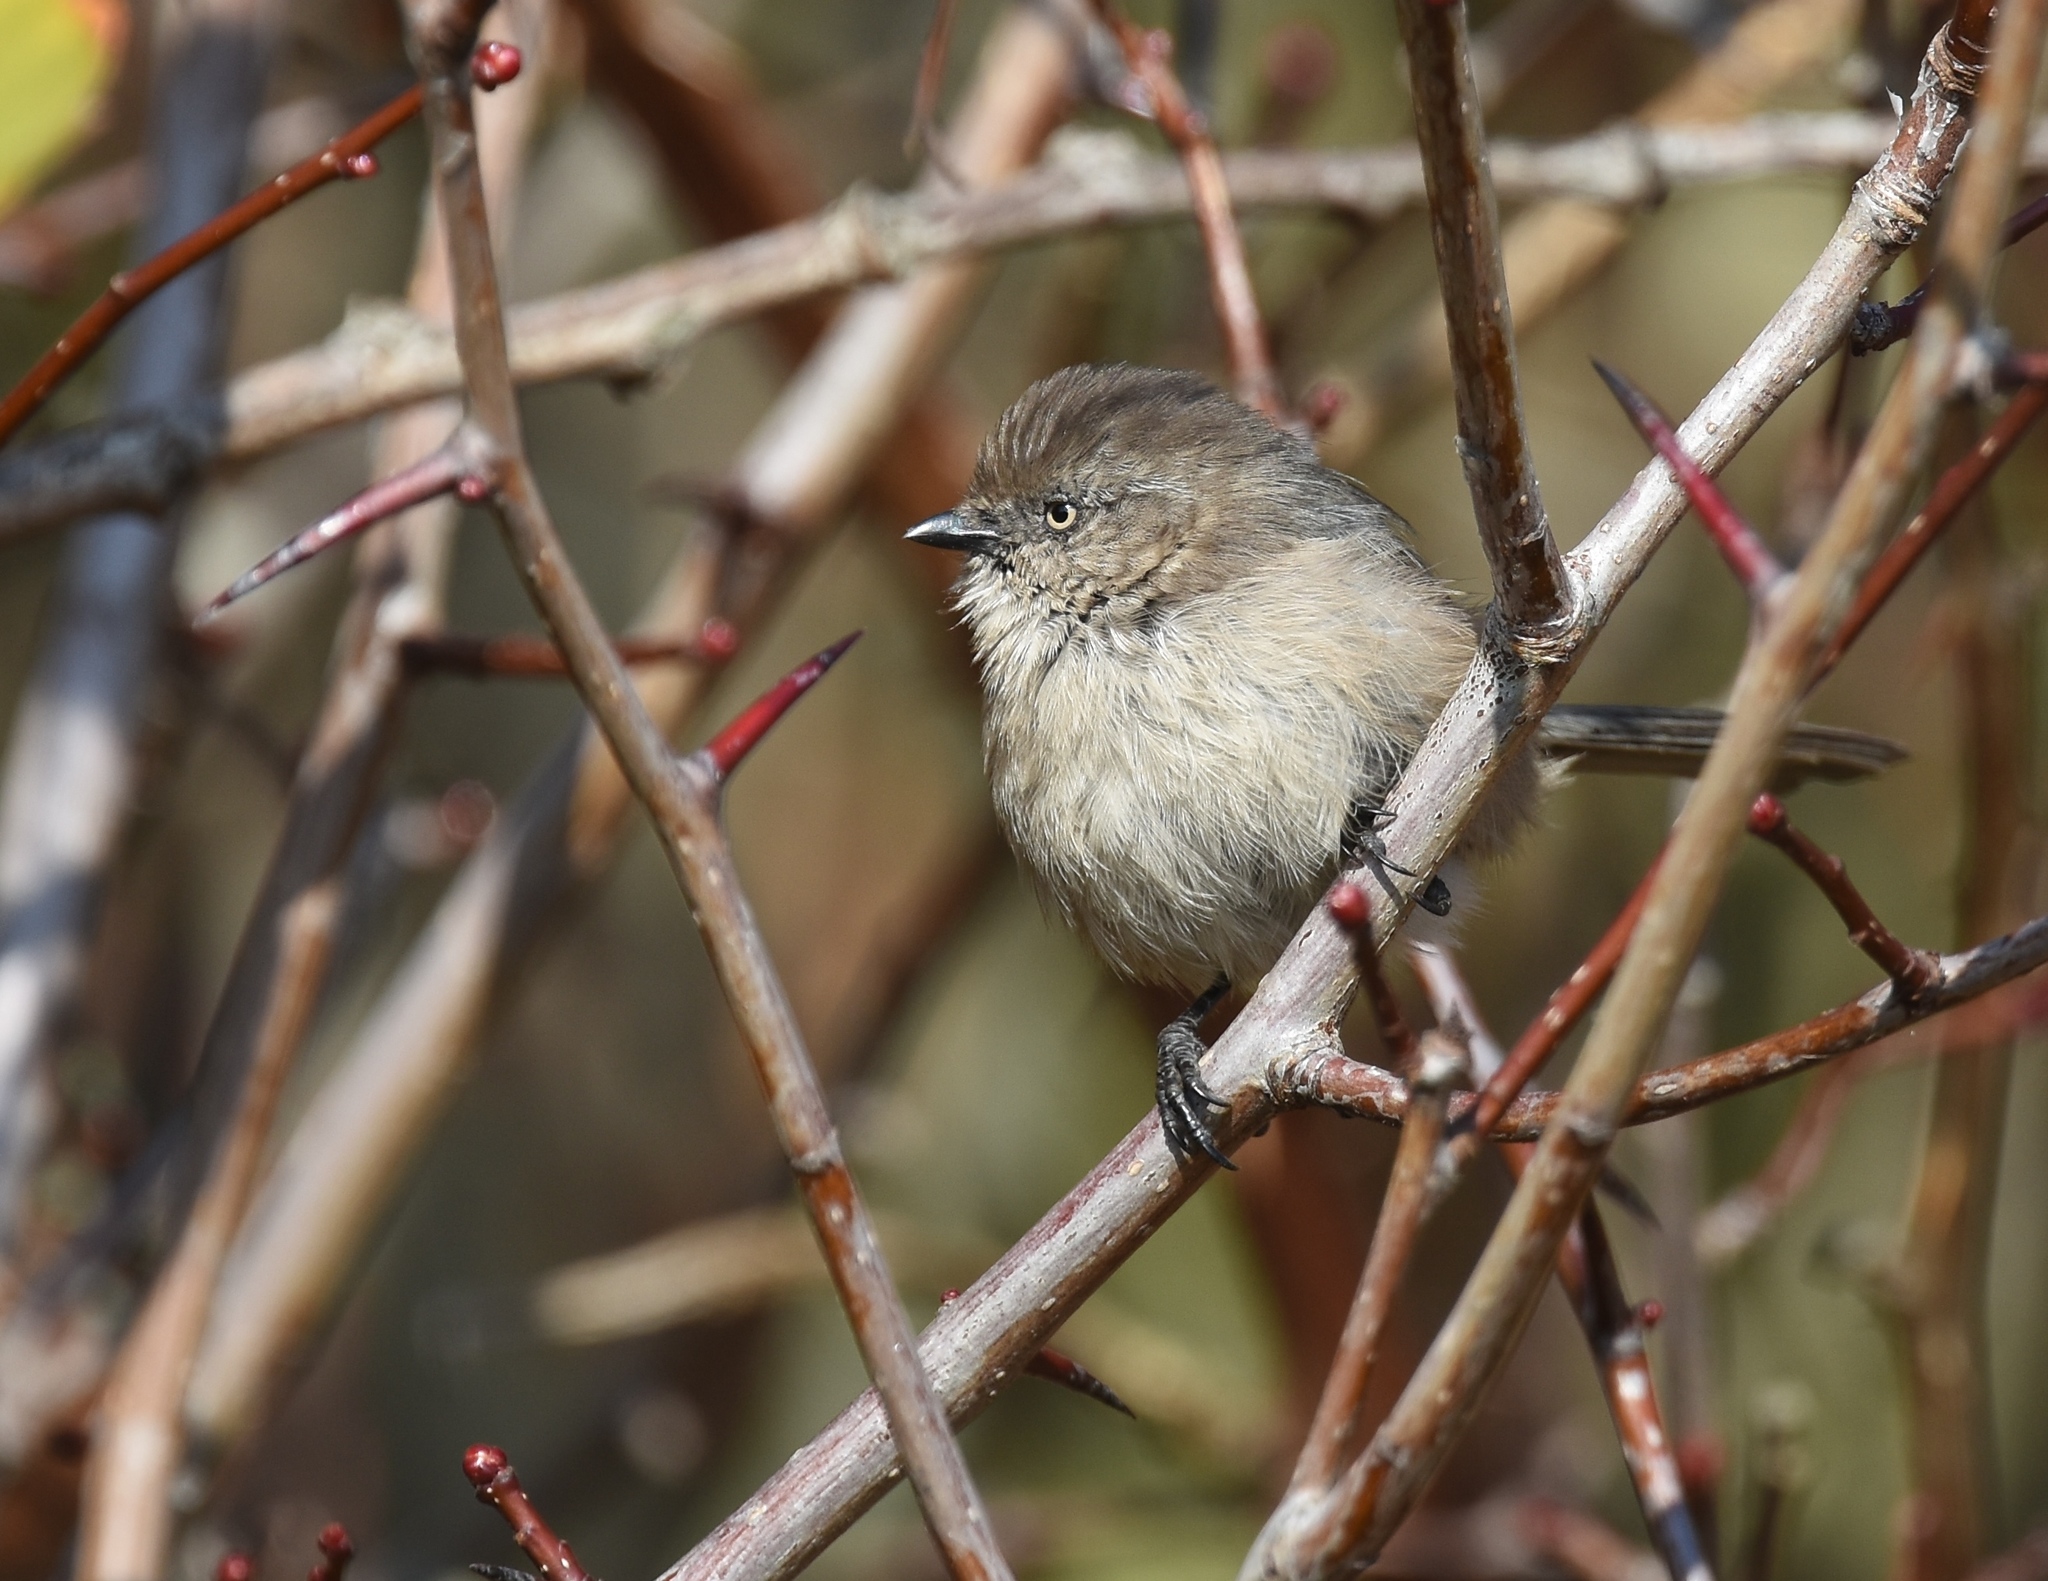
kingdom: Animalia
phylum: Chordata
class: Aves
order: Passeriformes
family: Aegithalidae
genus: Psaltriparus
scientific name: Psaltriparus minimus
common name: American bushtit
